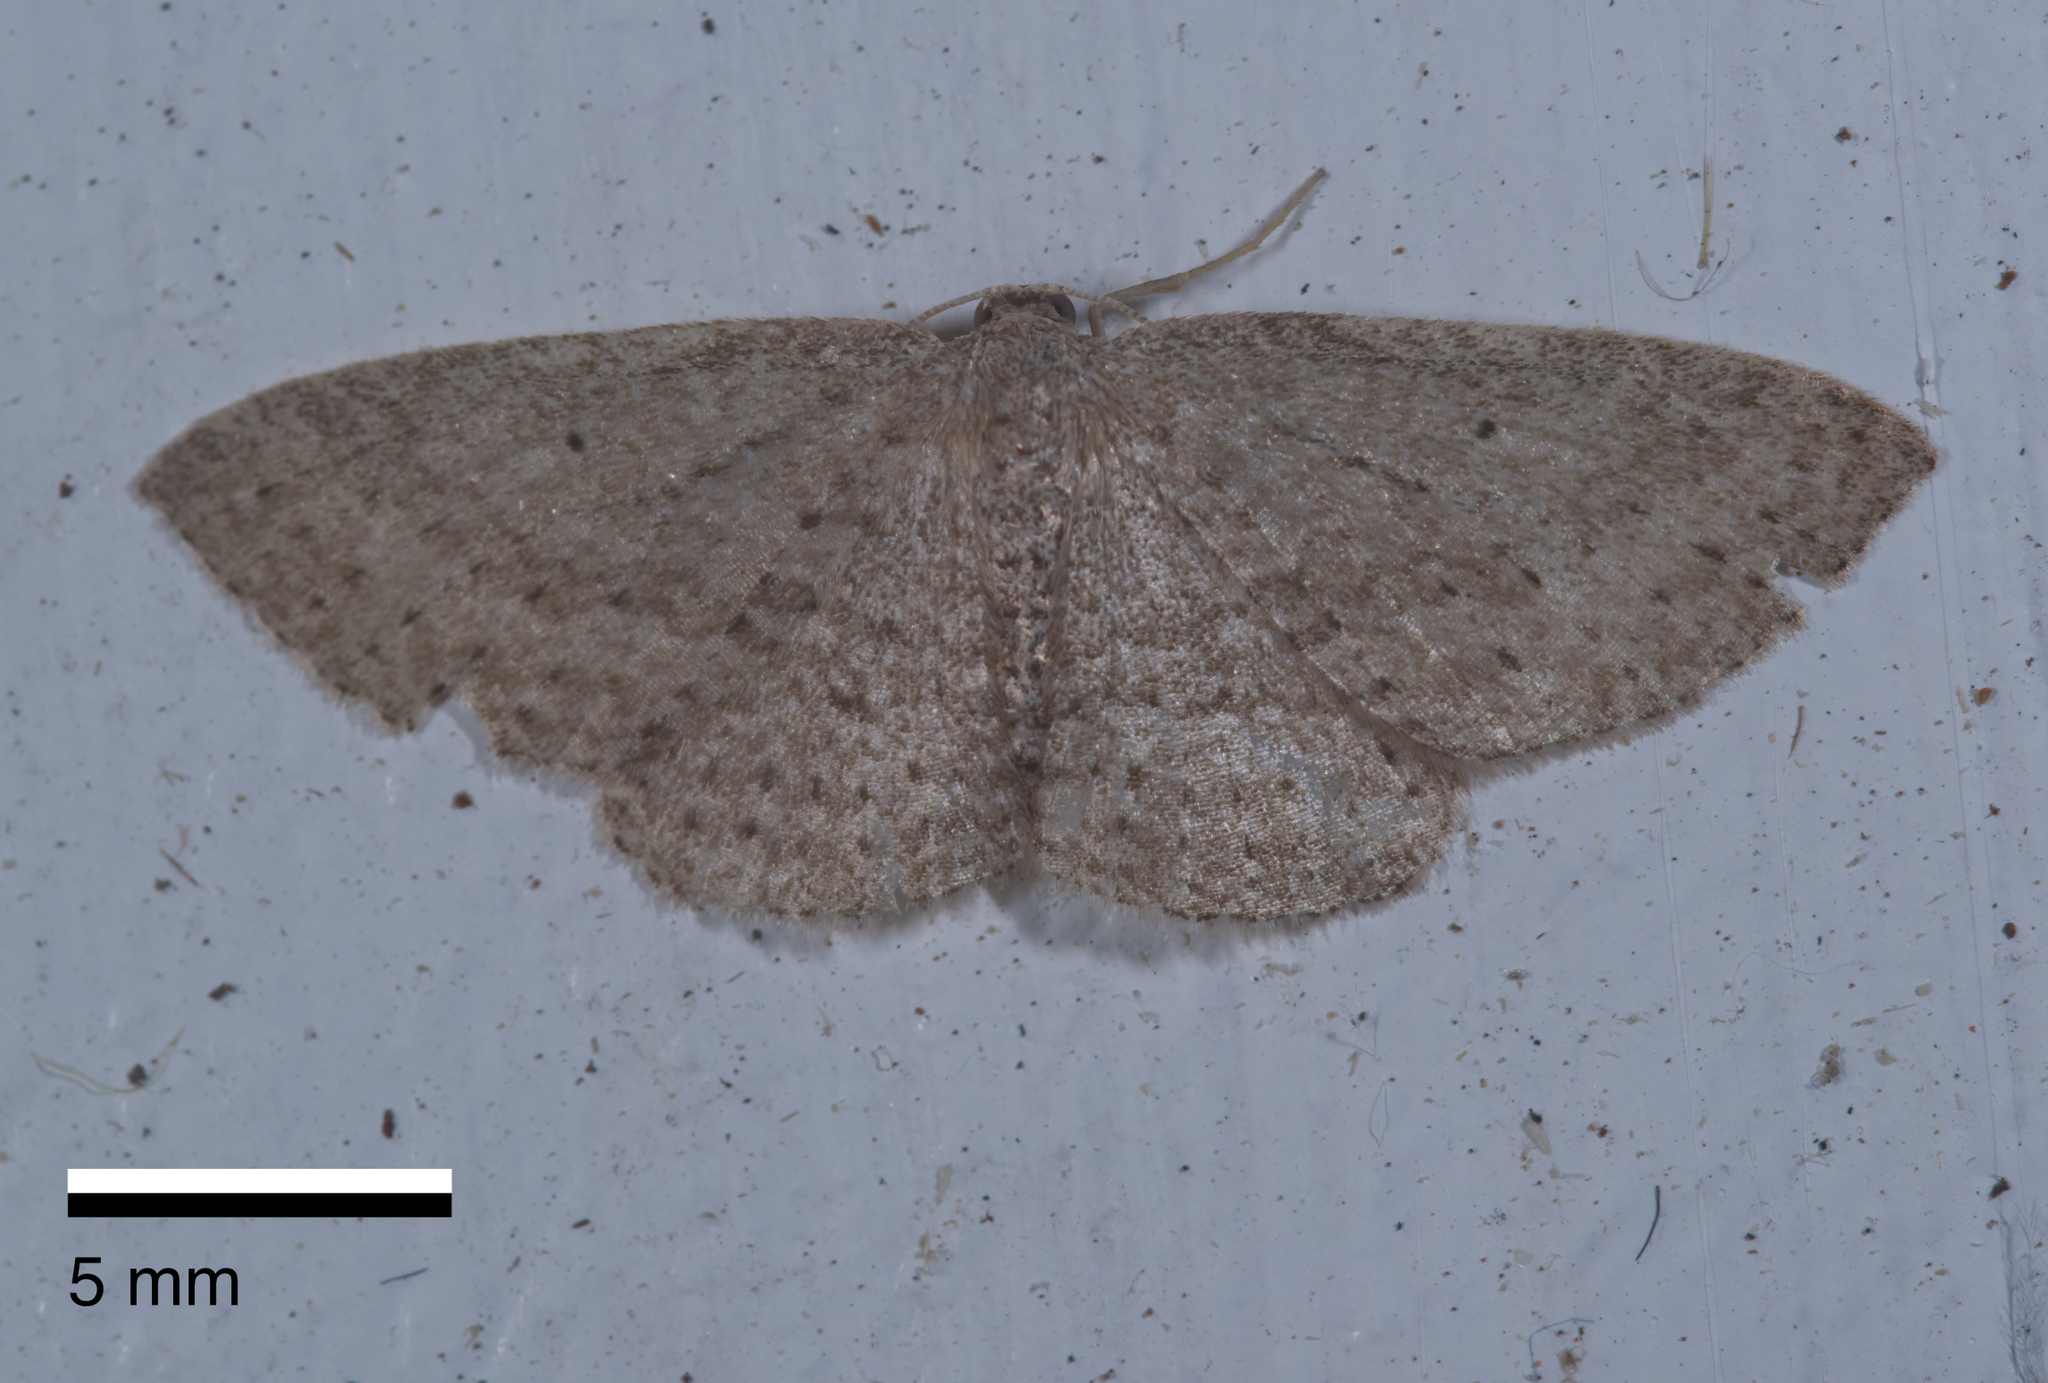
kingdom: Animalia
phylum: Arthropoda
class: Insecta
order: Lepidoptera
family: Geometridae
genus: Poecilasthena
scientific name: Poecilasthena schistaria
